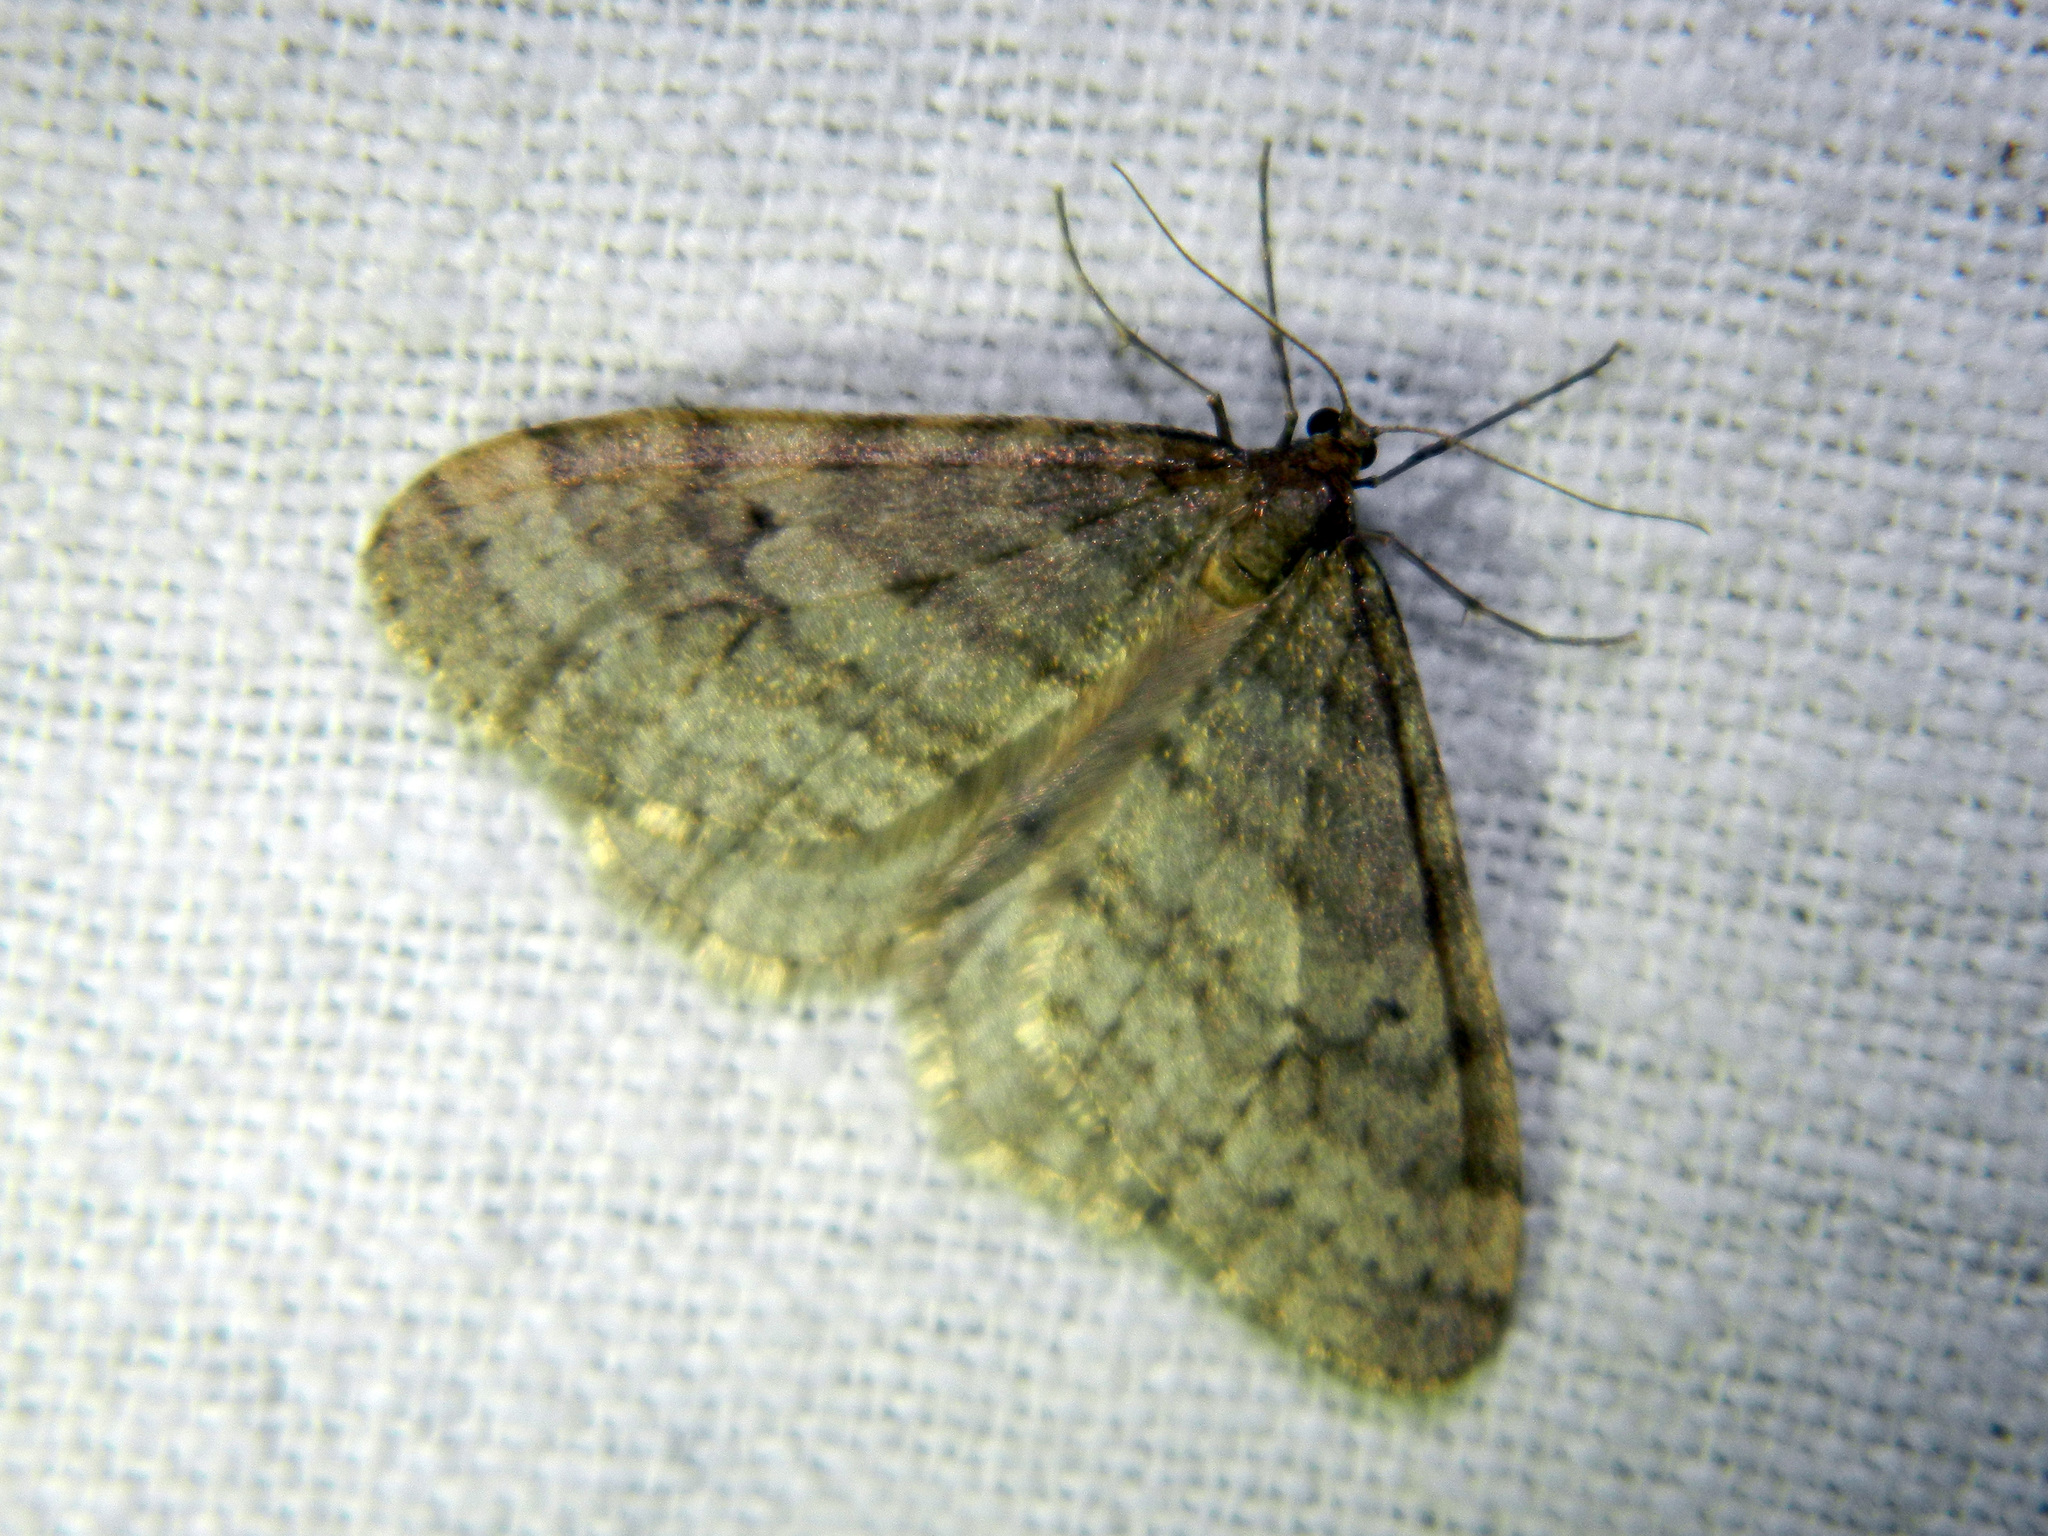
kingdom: Animalia
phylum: Arthropoda
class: Insecta
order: Lepidoptera
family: Geometridae
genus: Operophtera
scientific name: Operophtera bruceata
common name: Bruce spanworm
